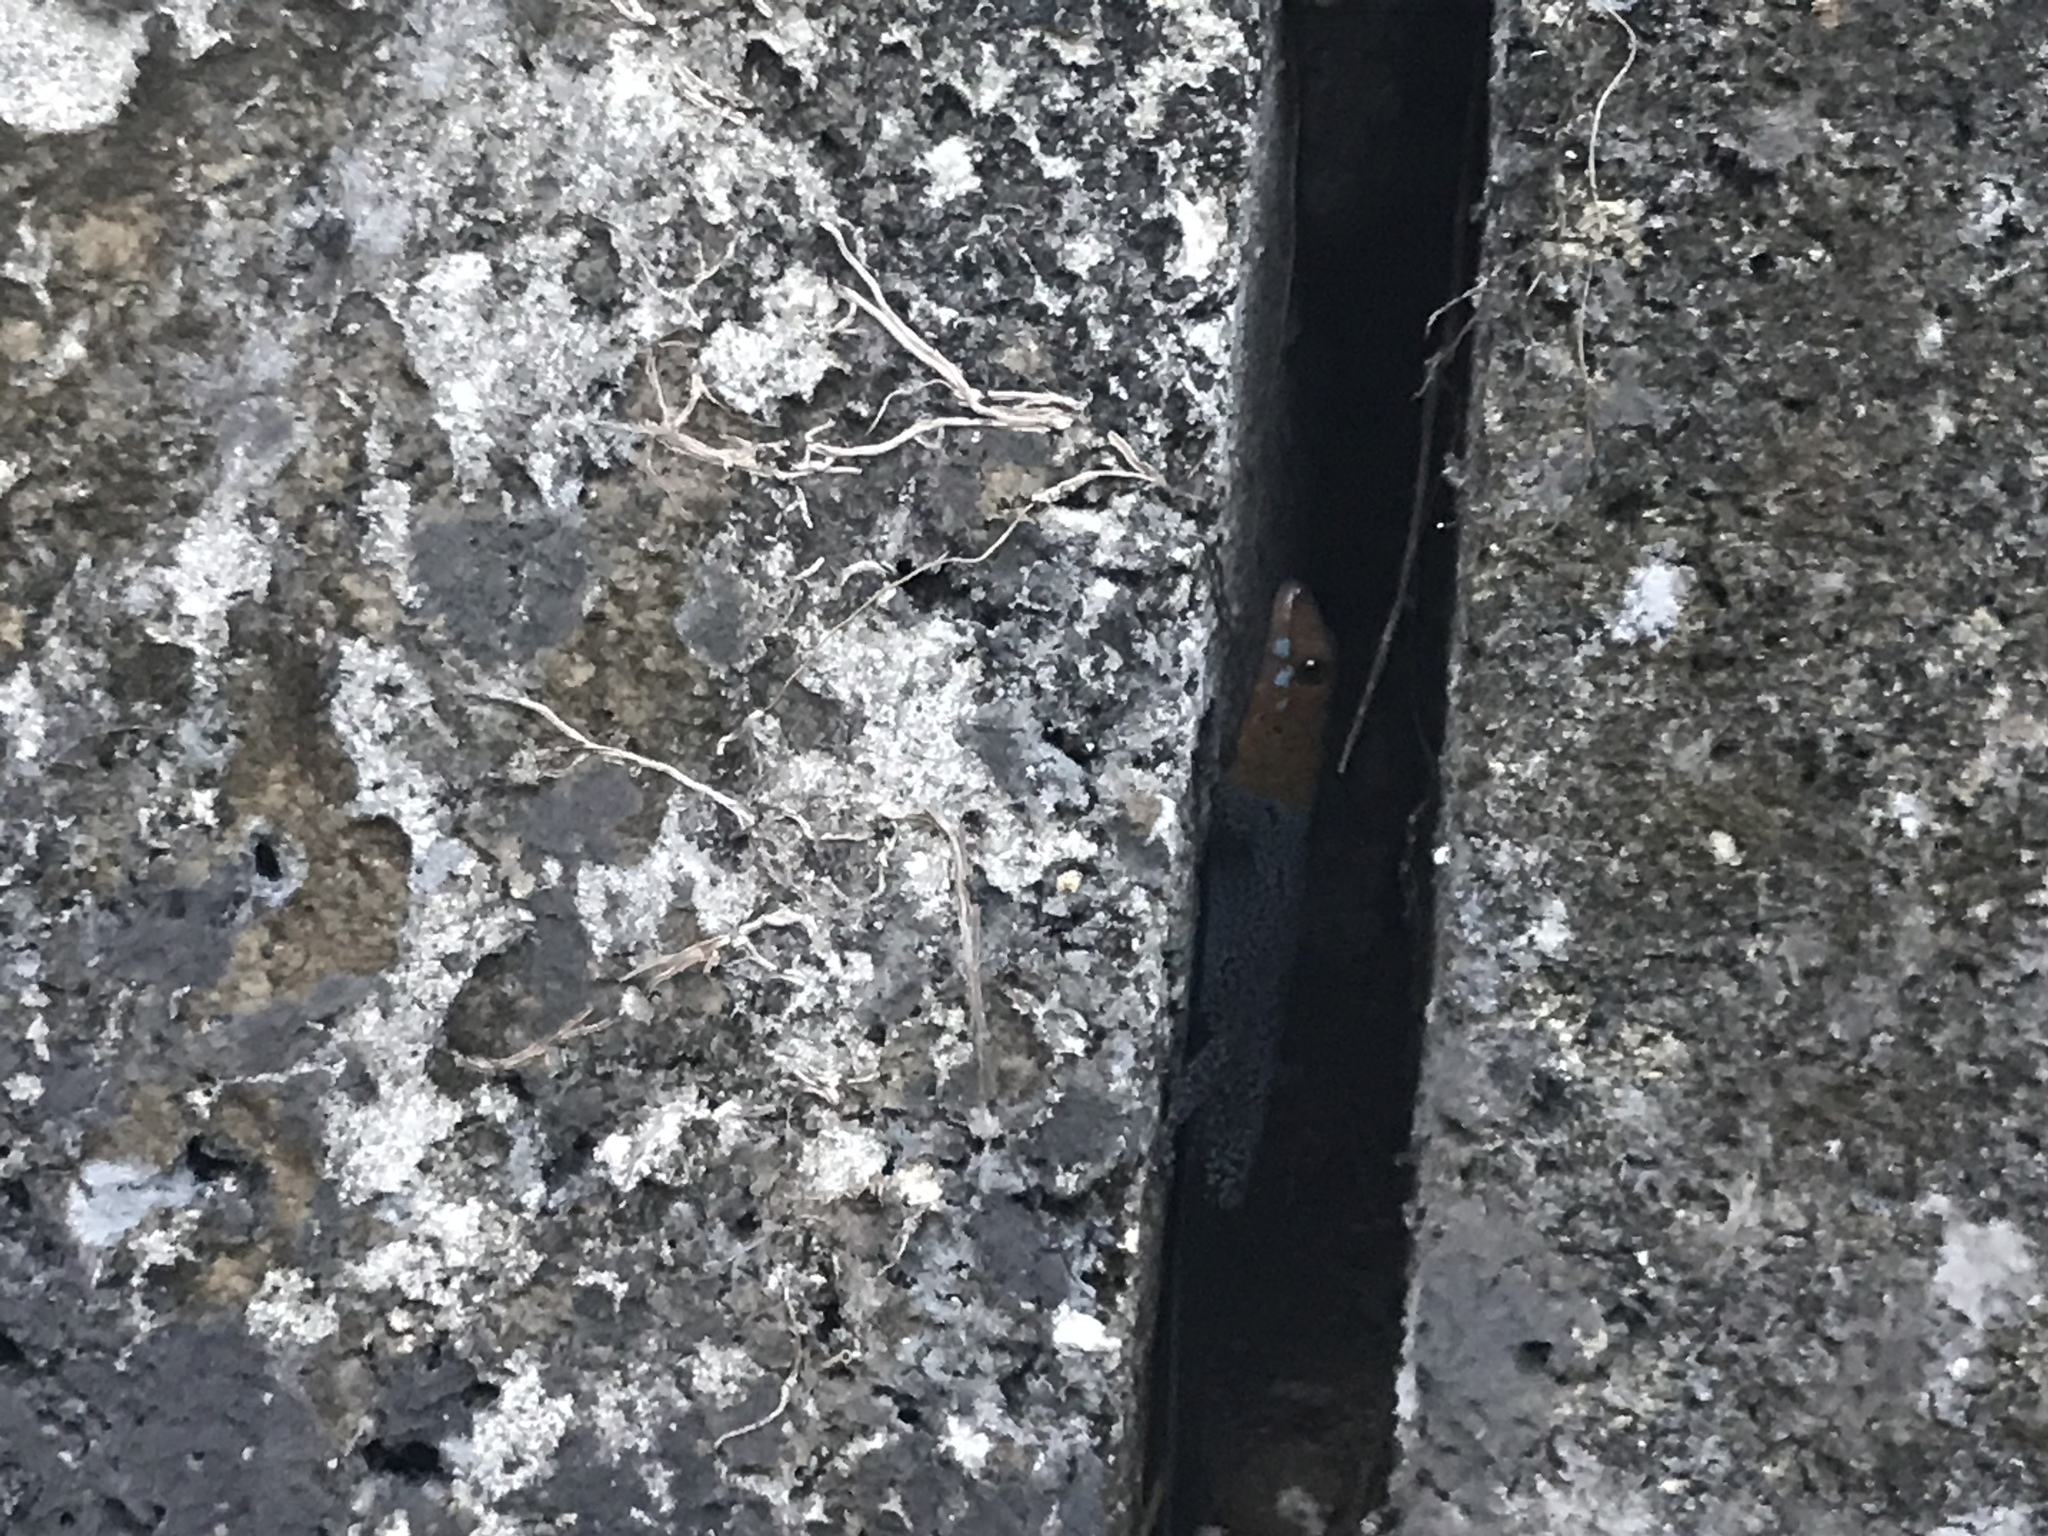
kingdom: Animalia
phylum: Chordata
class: Squamata
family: Sphaerodactylidae
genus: Gonatodes
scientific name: Gonatodes albogularis
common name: Yellow-headed gecko
